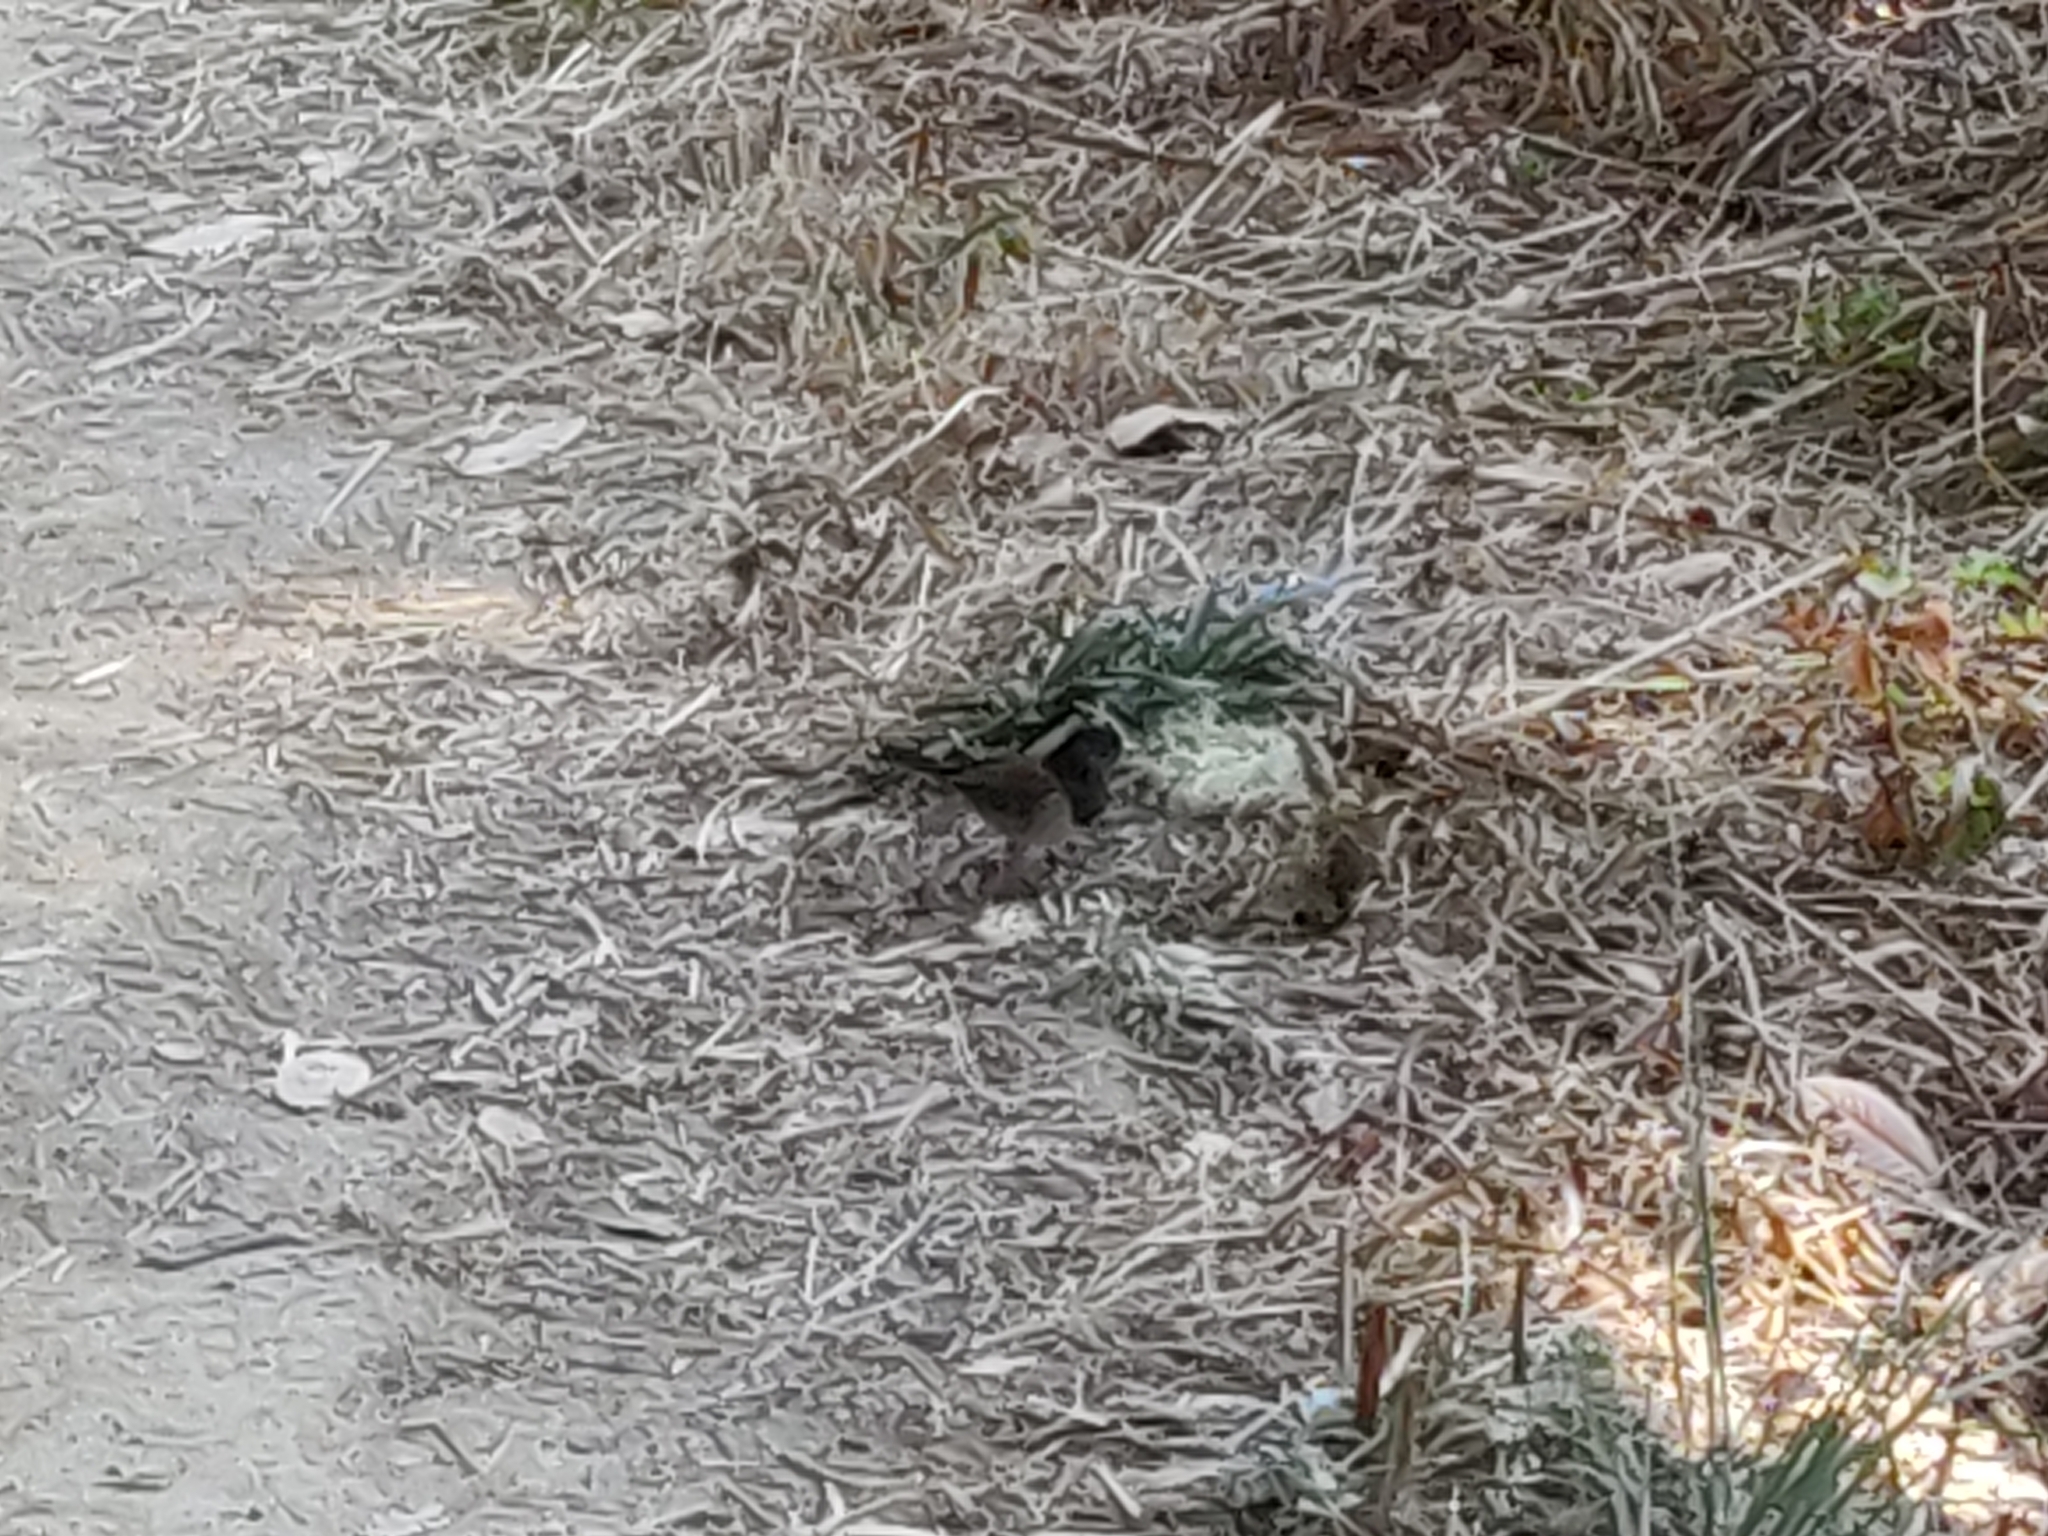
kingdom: Animalia
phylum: Chordata
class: Aves
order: Passeriformes
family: Passerellidae
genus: Junco
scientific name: Junco hyemalis
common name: Dark-eyed junco
